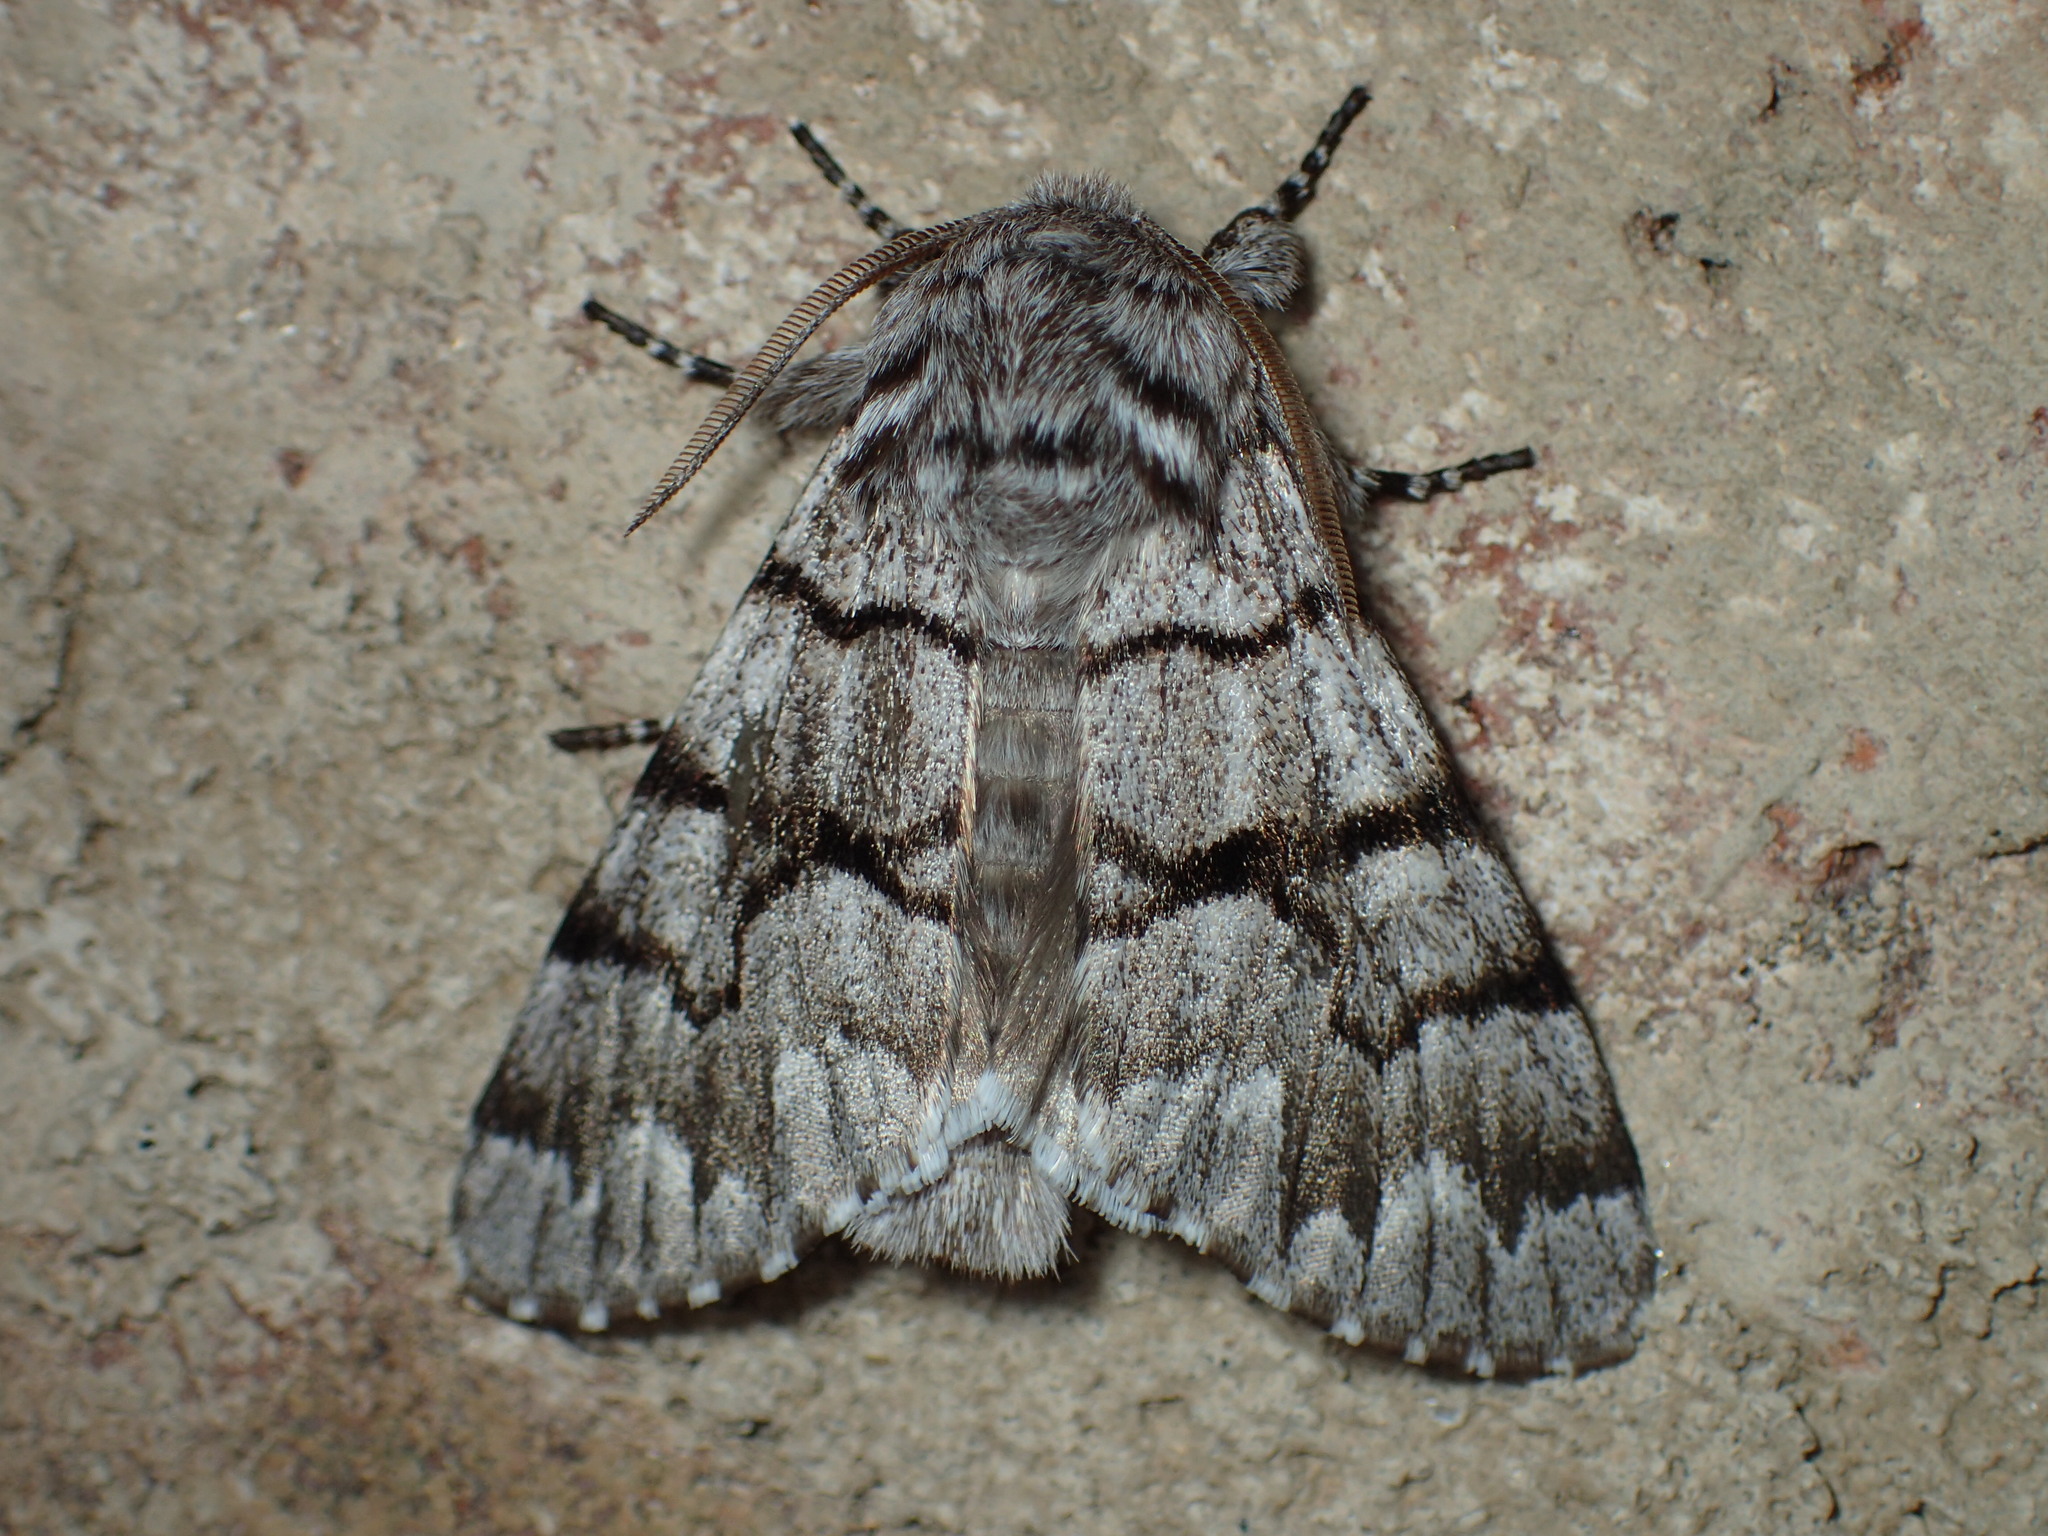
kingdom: Animalia
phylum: Arthropoda
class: Insecta
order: Lepidoptera
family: Noctuidae
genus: Panthea
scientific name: Panthea furcilla
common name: Eastern panthea moth
